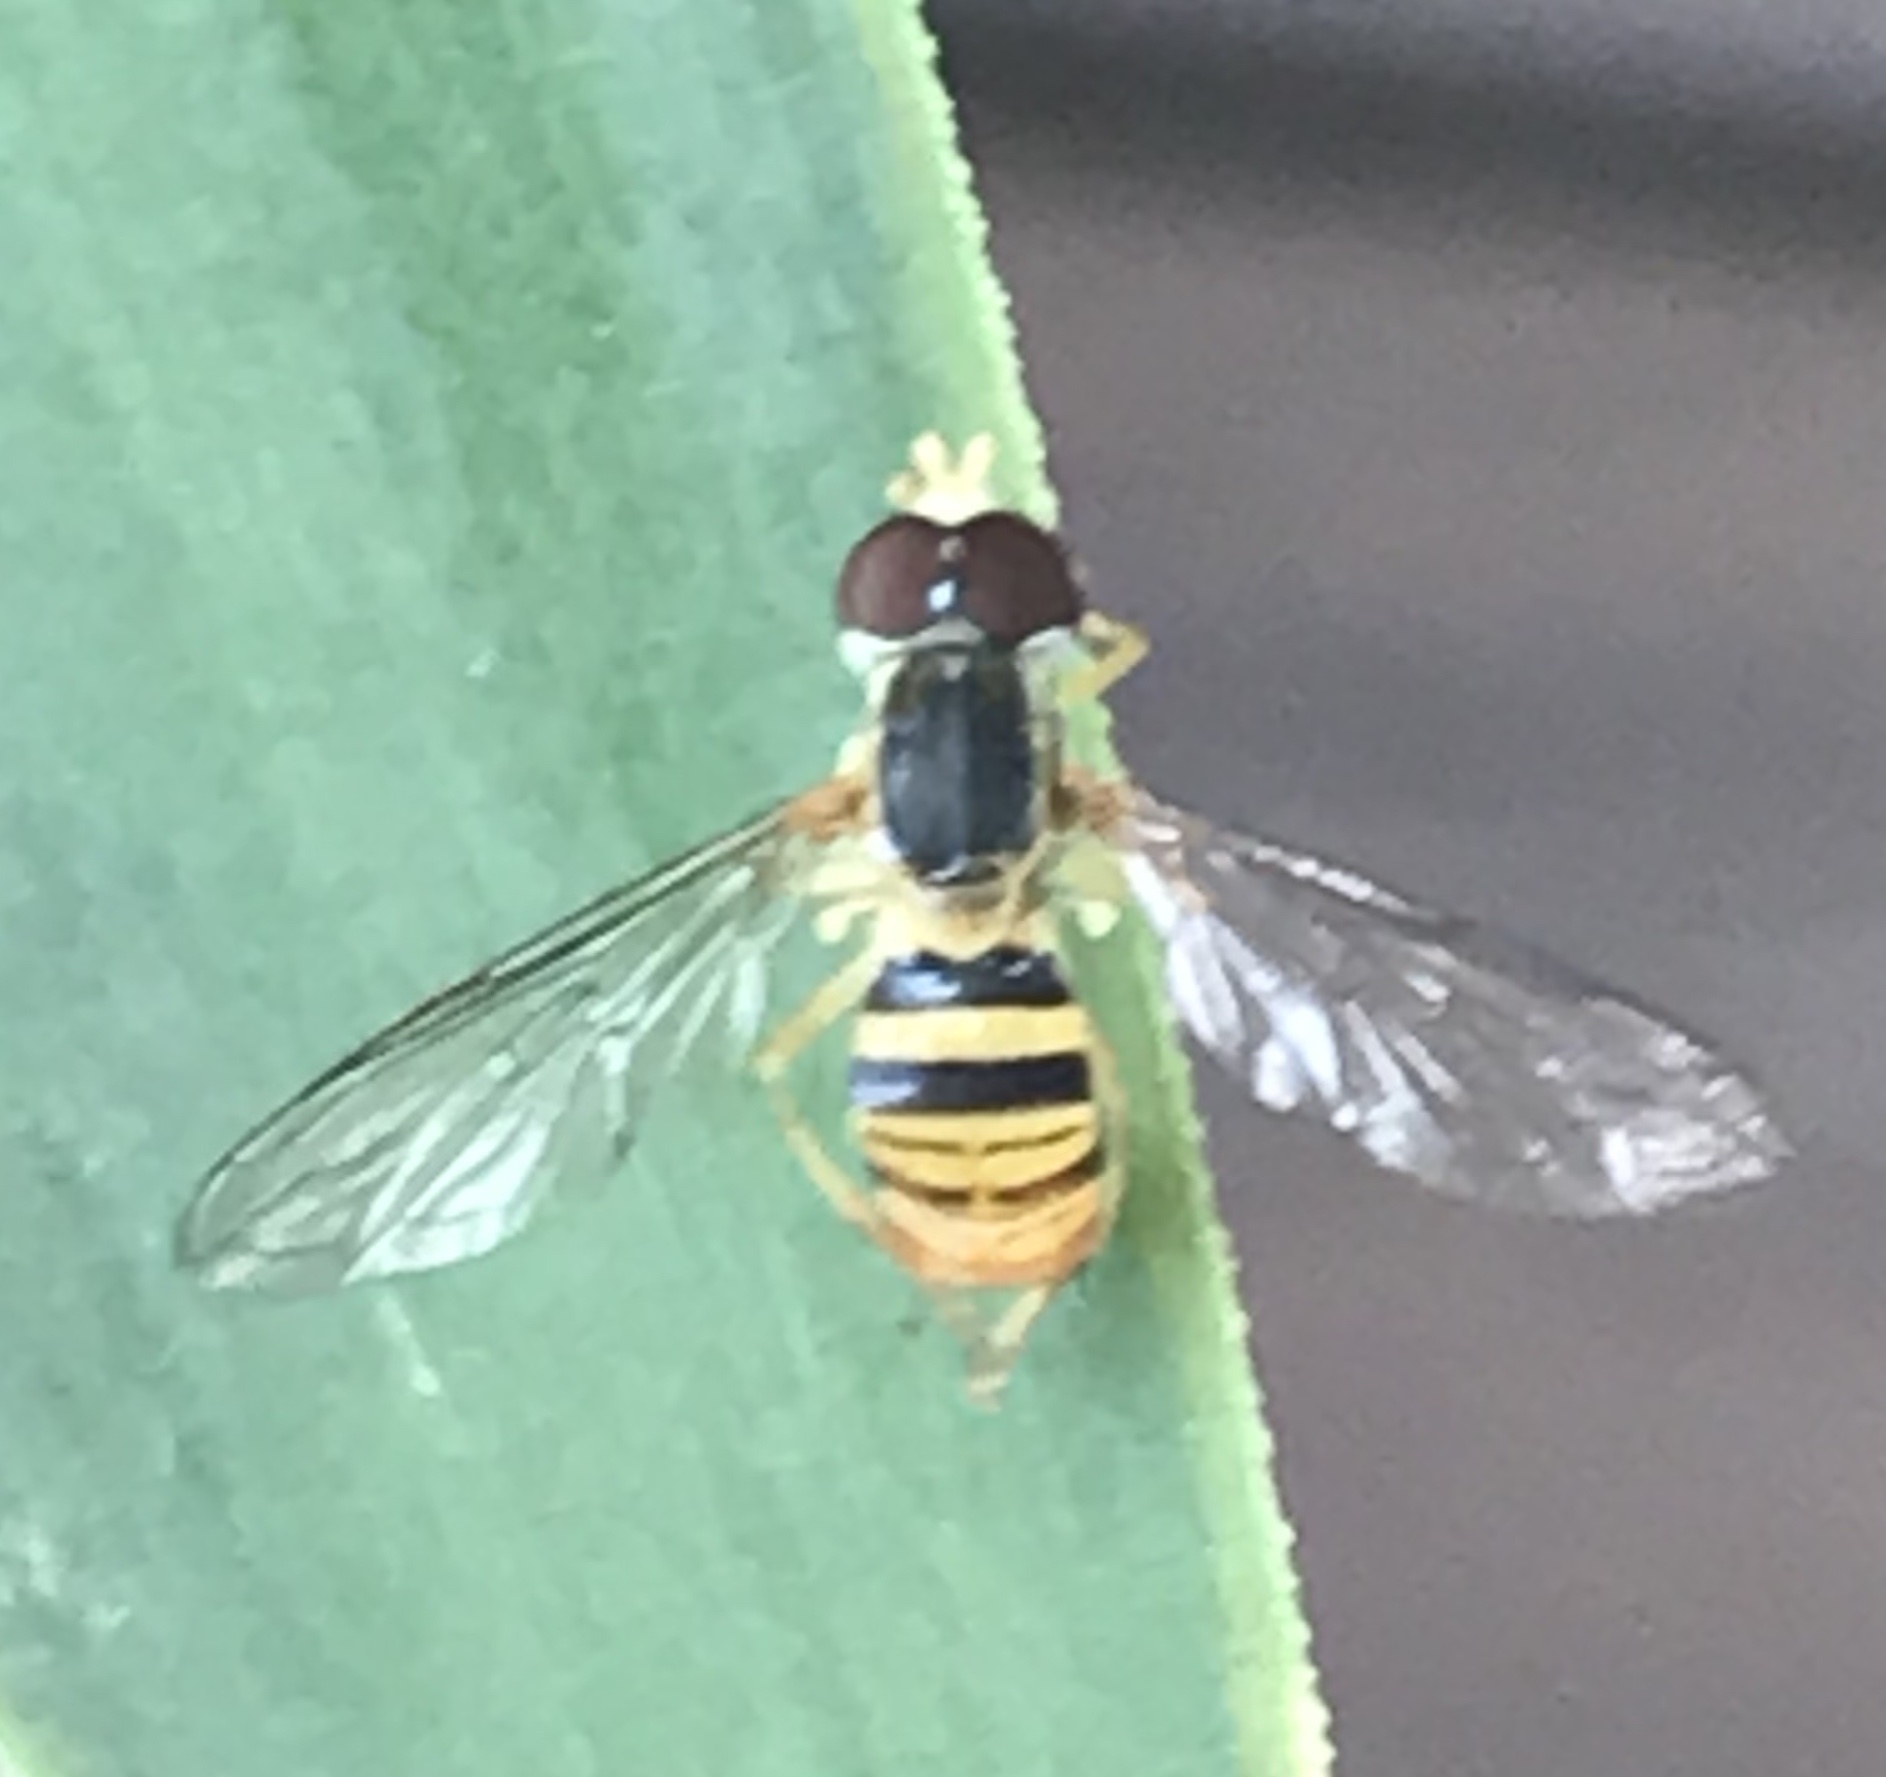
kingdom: Animalia
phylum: Arthropoda
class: Insecta
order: Diptera
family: Syrphidae
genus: Toxomerus
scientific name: Toxomerus politus
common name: Maize calligrapher
